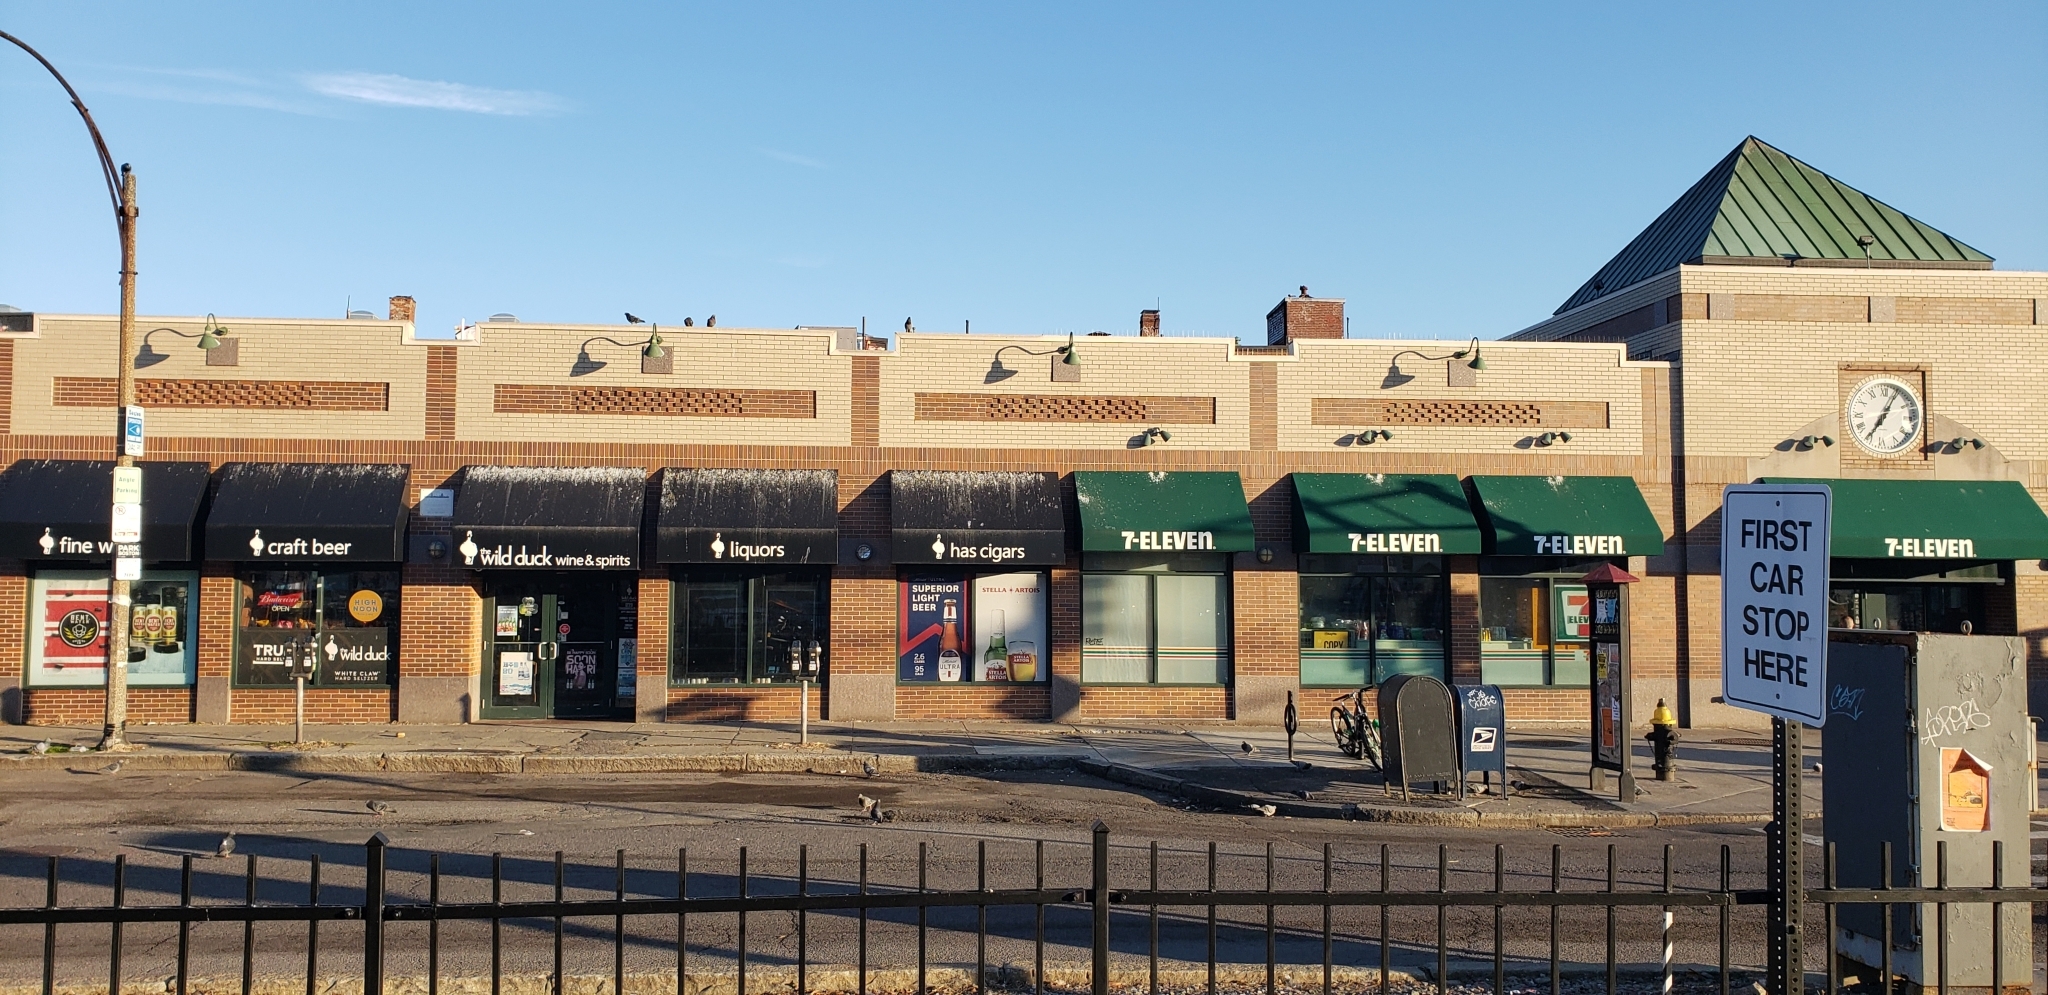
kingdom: Animalia
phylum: Chordata
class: Aves
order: Columbiformes
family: Columbidae
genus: Columba
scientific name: Columba livia
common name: Rock pigeon
